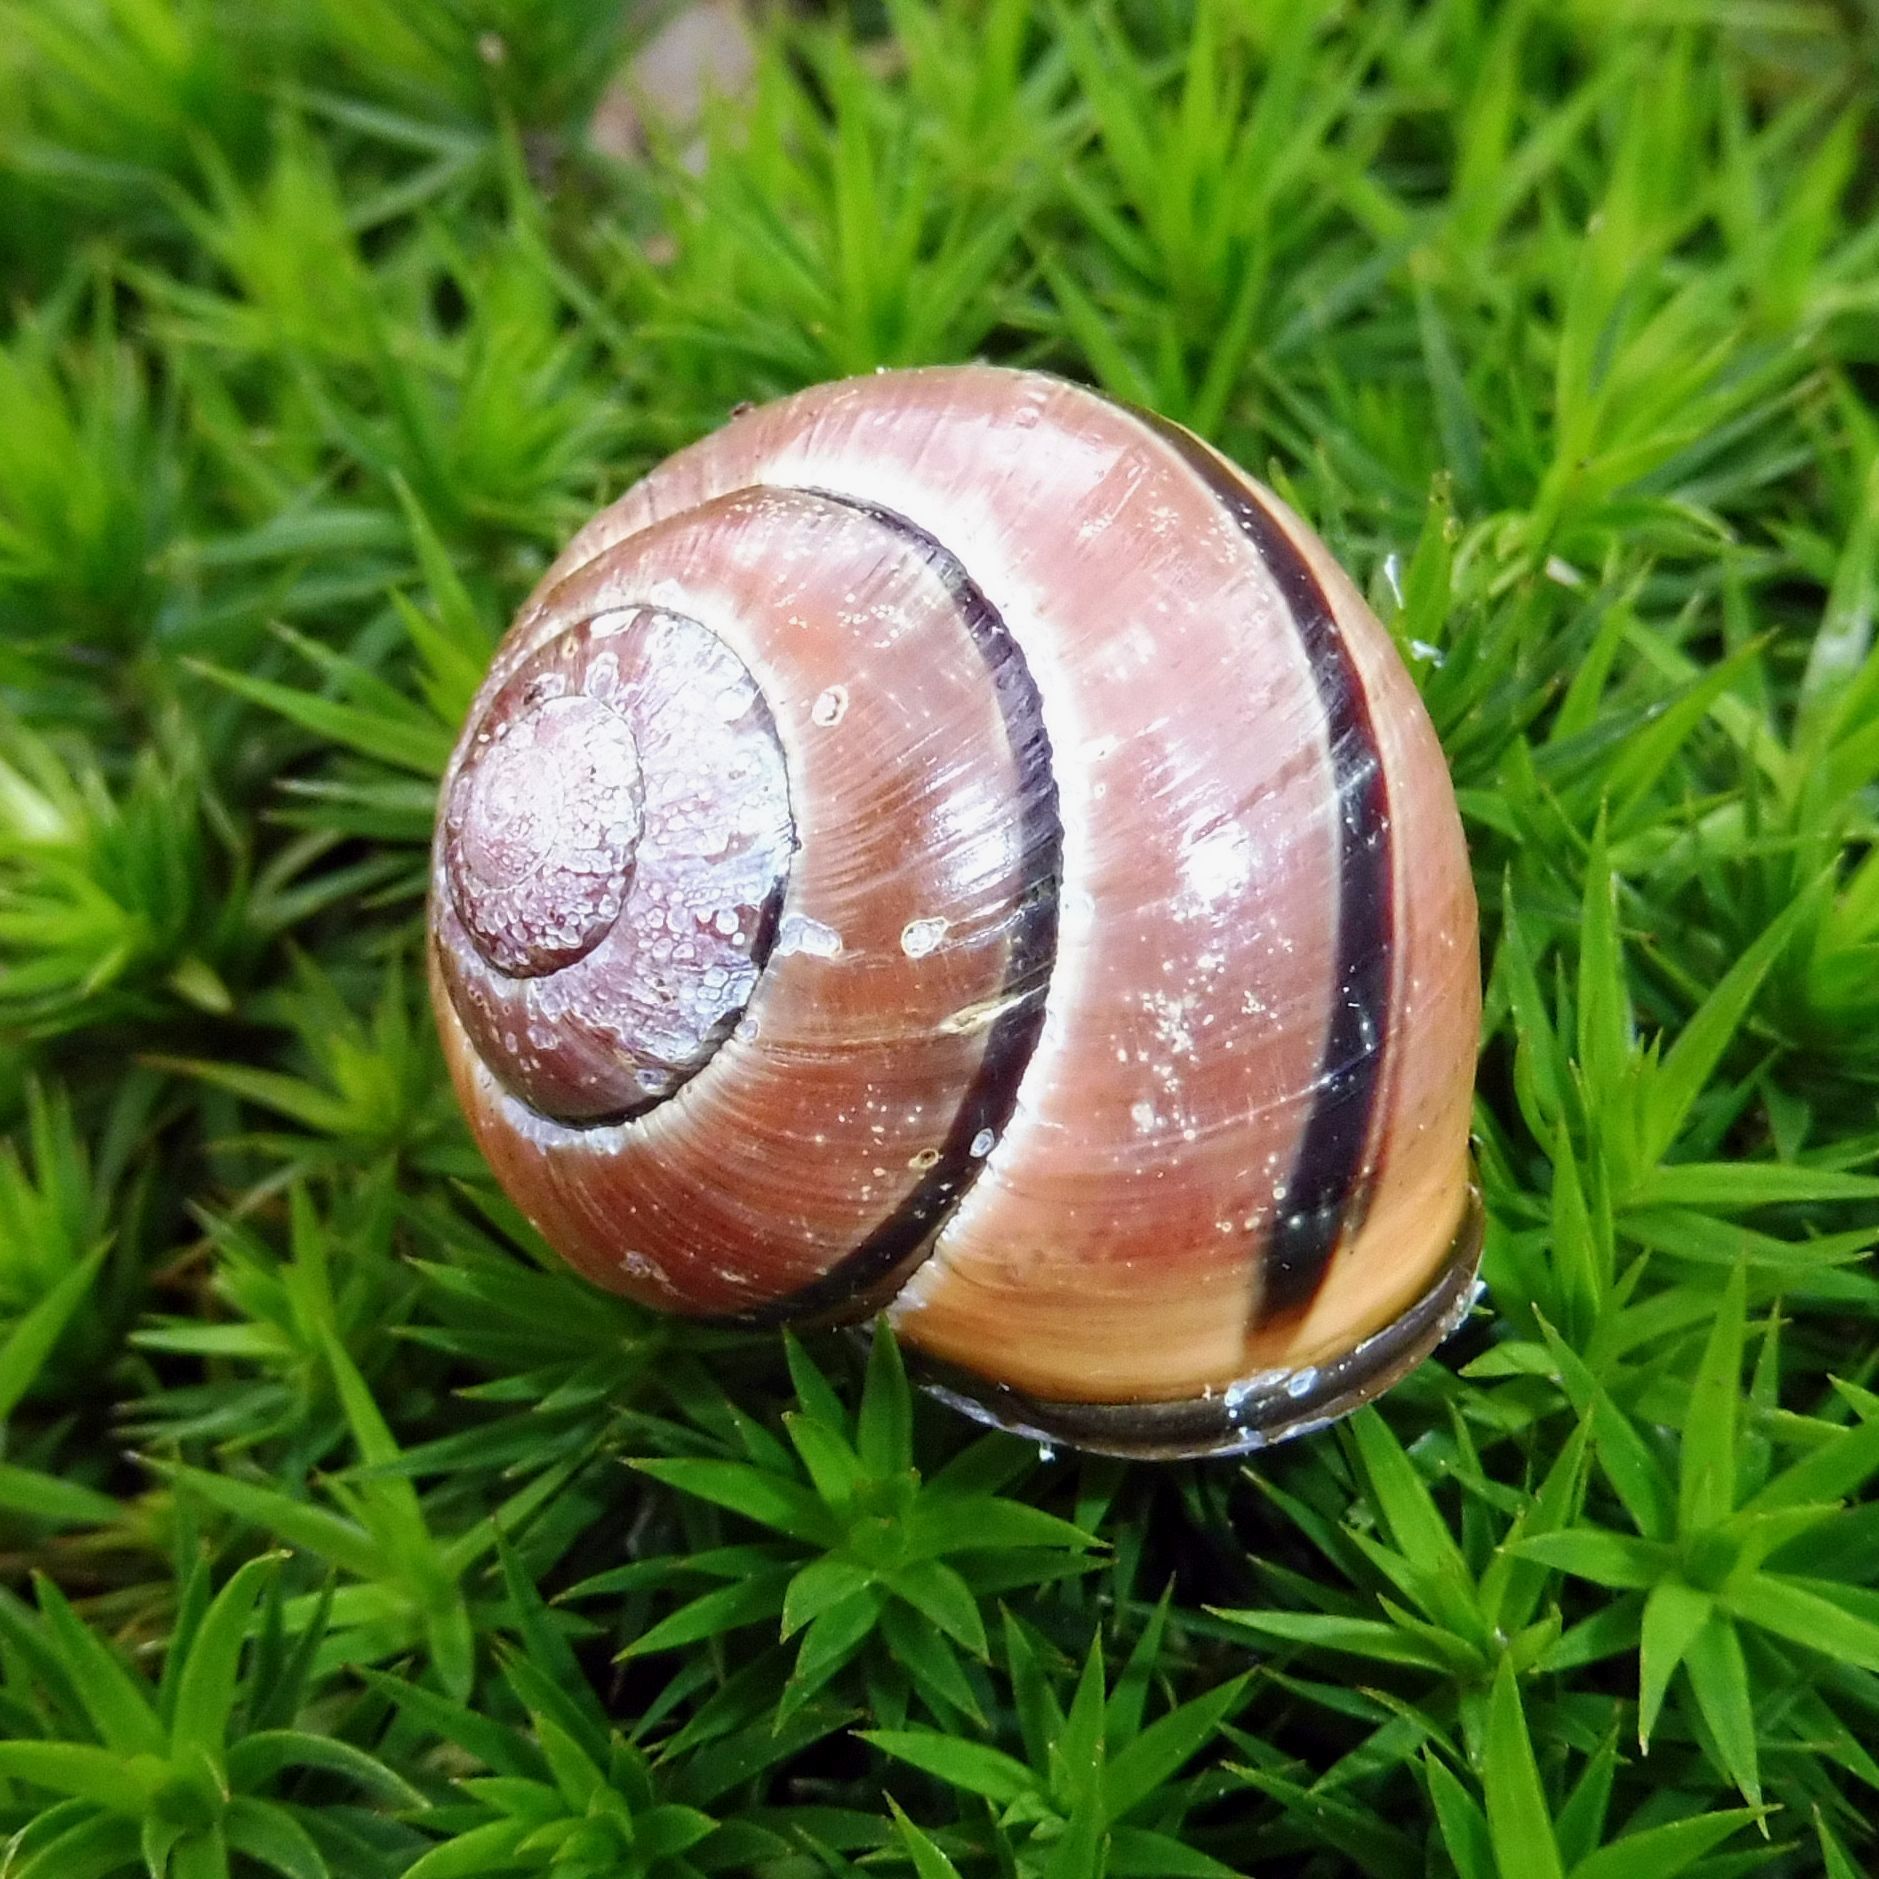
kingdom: Animalia
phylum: Mollusca
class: Gastropoda
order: Stylommatophora
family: Helicidae
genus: Cepaea
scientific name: Cepaea nemoralis
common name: Grovesnail
